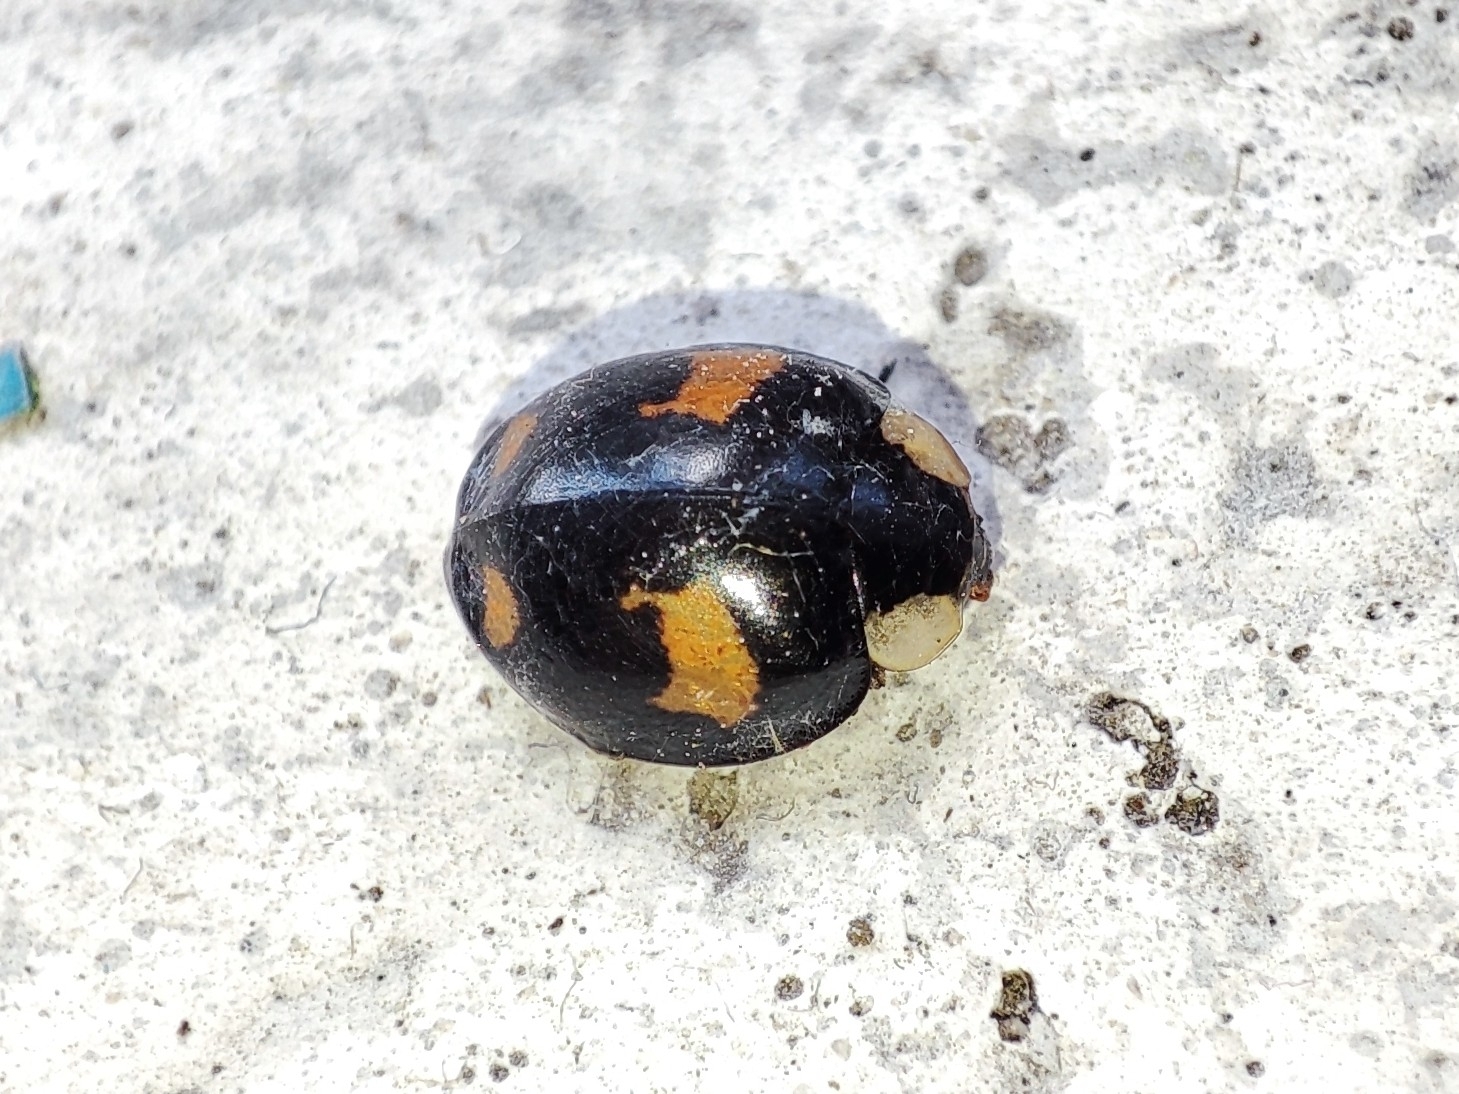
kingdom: Animalia
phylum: Arthropoda
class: Insecta
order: Coleoptera
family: Coccinellidae
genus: Harmonia
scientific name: Harmonia axyridis
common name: Harlequin ladybird
